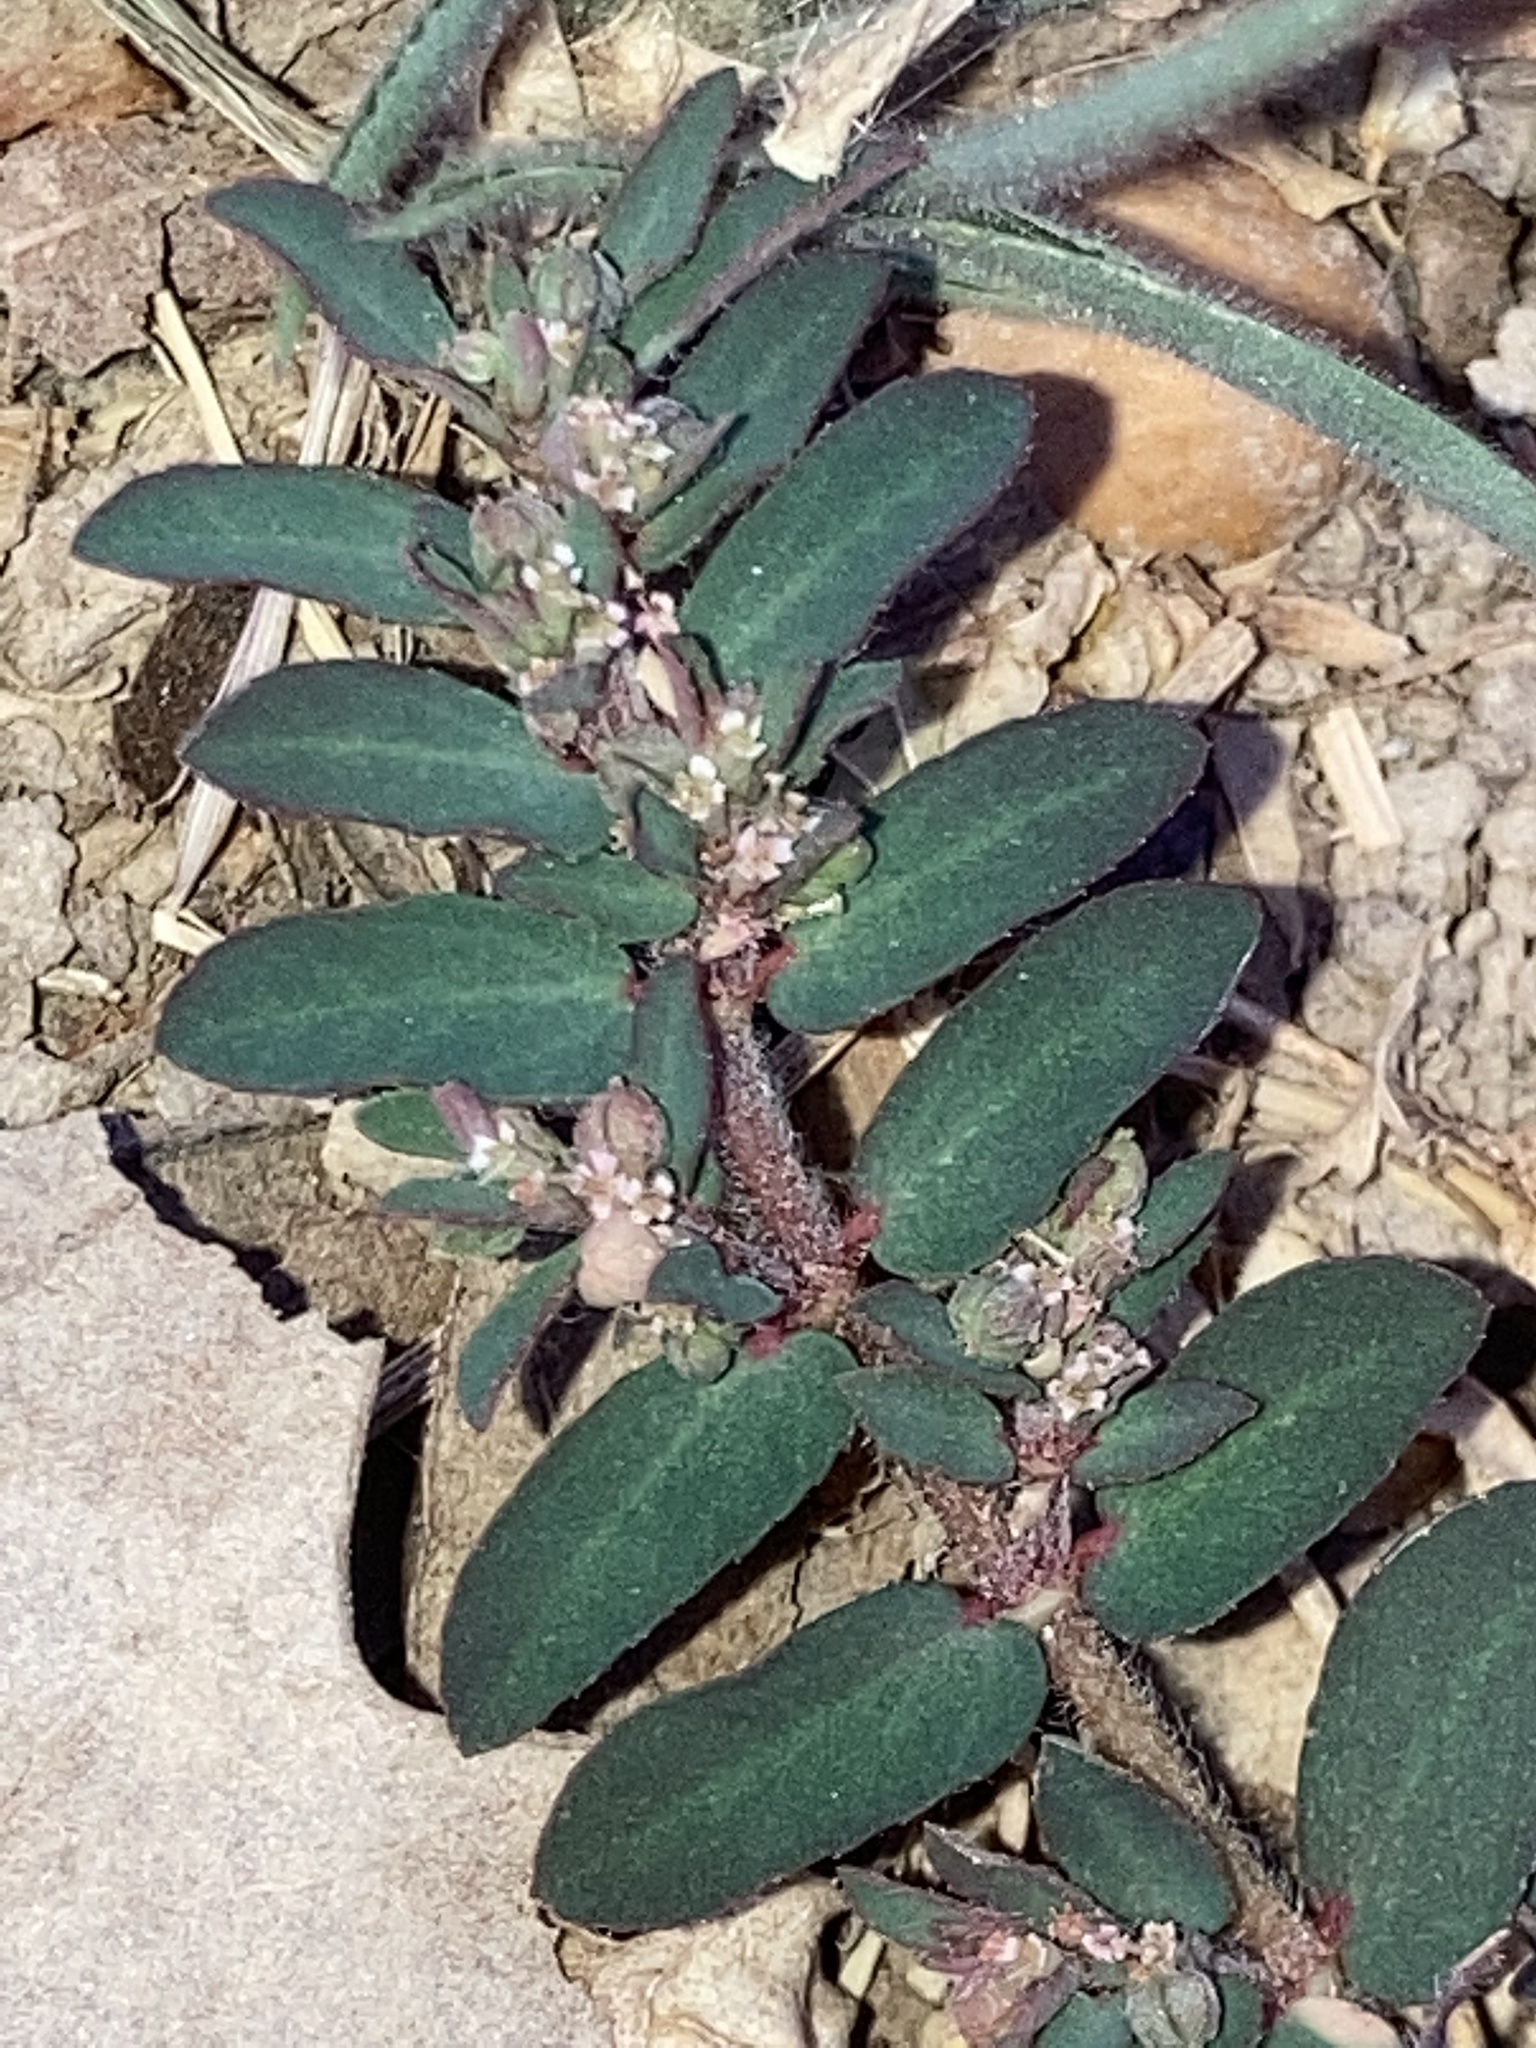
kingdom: Plantae
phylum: Tracheophyta
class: Magnoliopsida
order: Malpighiales
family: Euphorbiaceae
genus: Euphorbia
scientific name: Euphorbia maculata
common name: Spotted spurge
